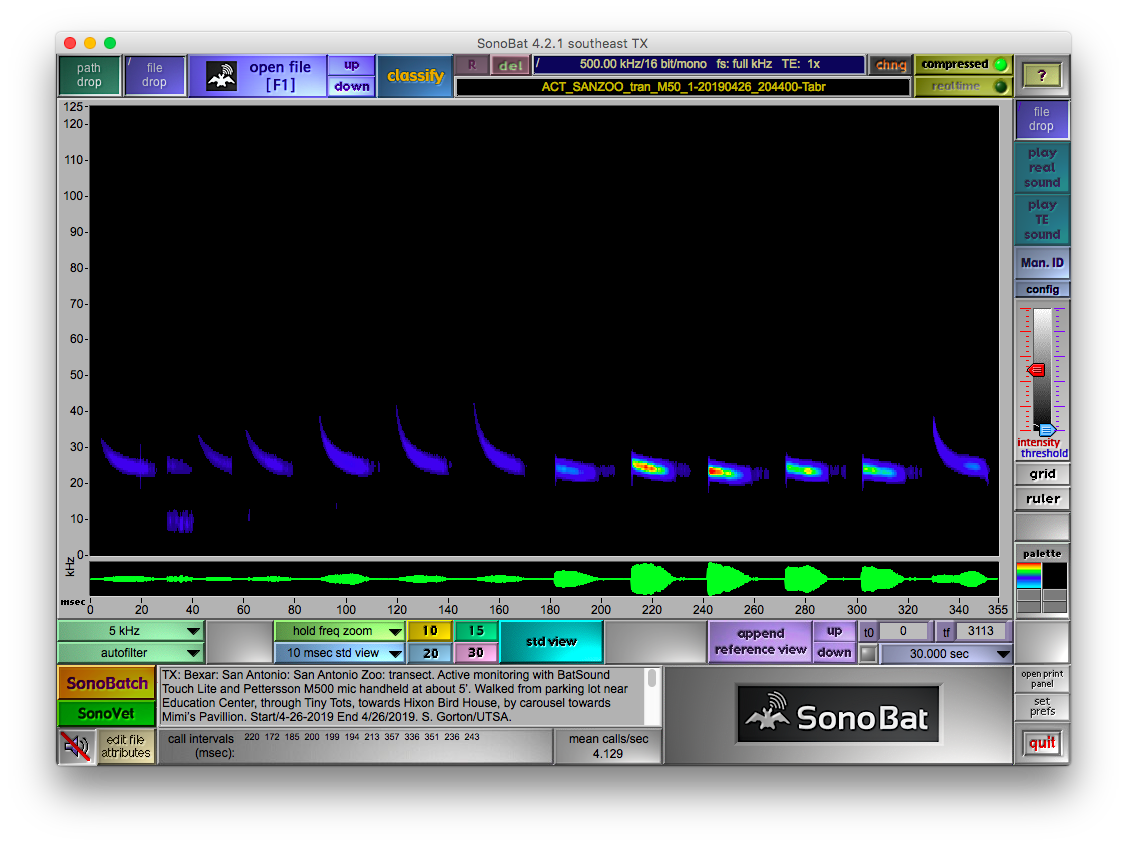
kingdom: Animalia
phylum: Chordata
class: Mammalia
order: Chiroptera
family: Molossidae
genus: Tadarida
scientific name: Tadarida brasiliensis
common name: Mexican free-tailed bat
